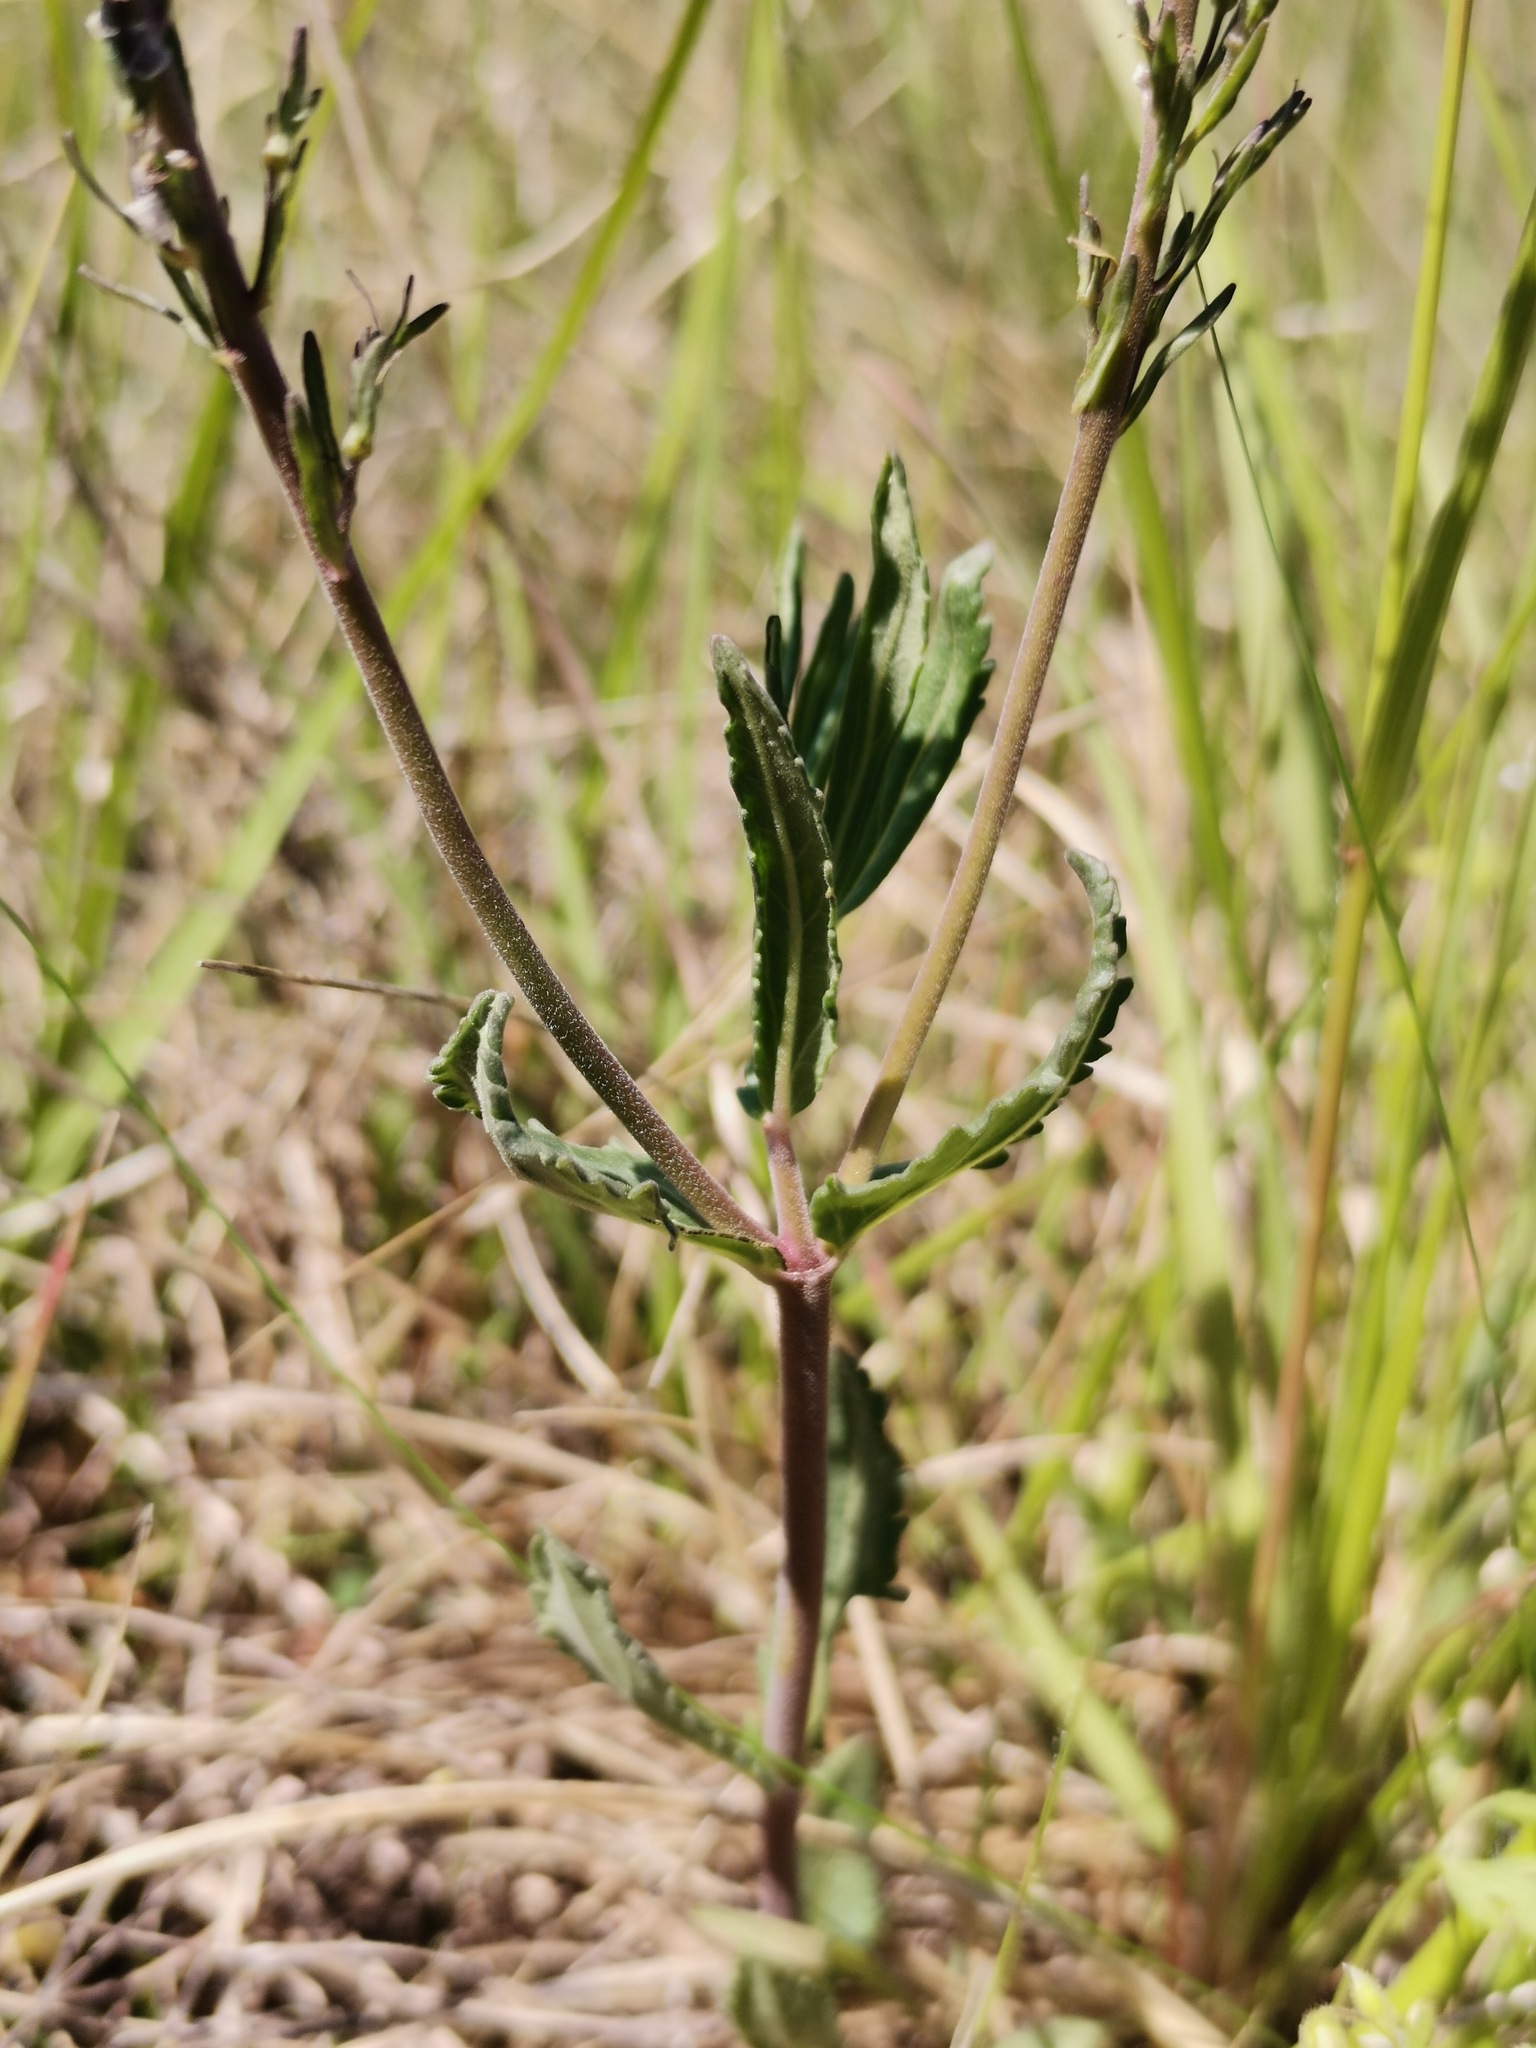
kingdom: Plantae
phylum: Tracheophyta
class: Magnoliopsida
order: Lamiales
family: Plantaginaceae
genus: Veronica
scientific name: Veronica austriaca
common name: Large speedwell
